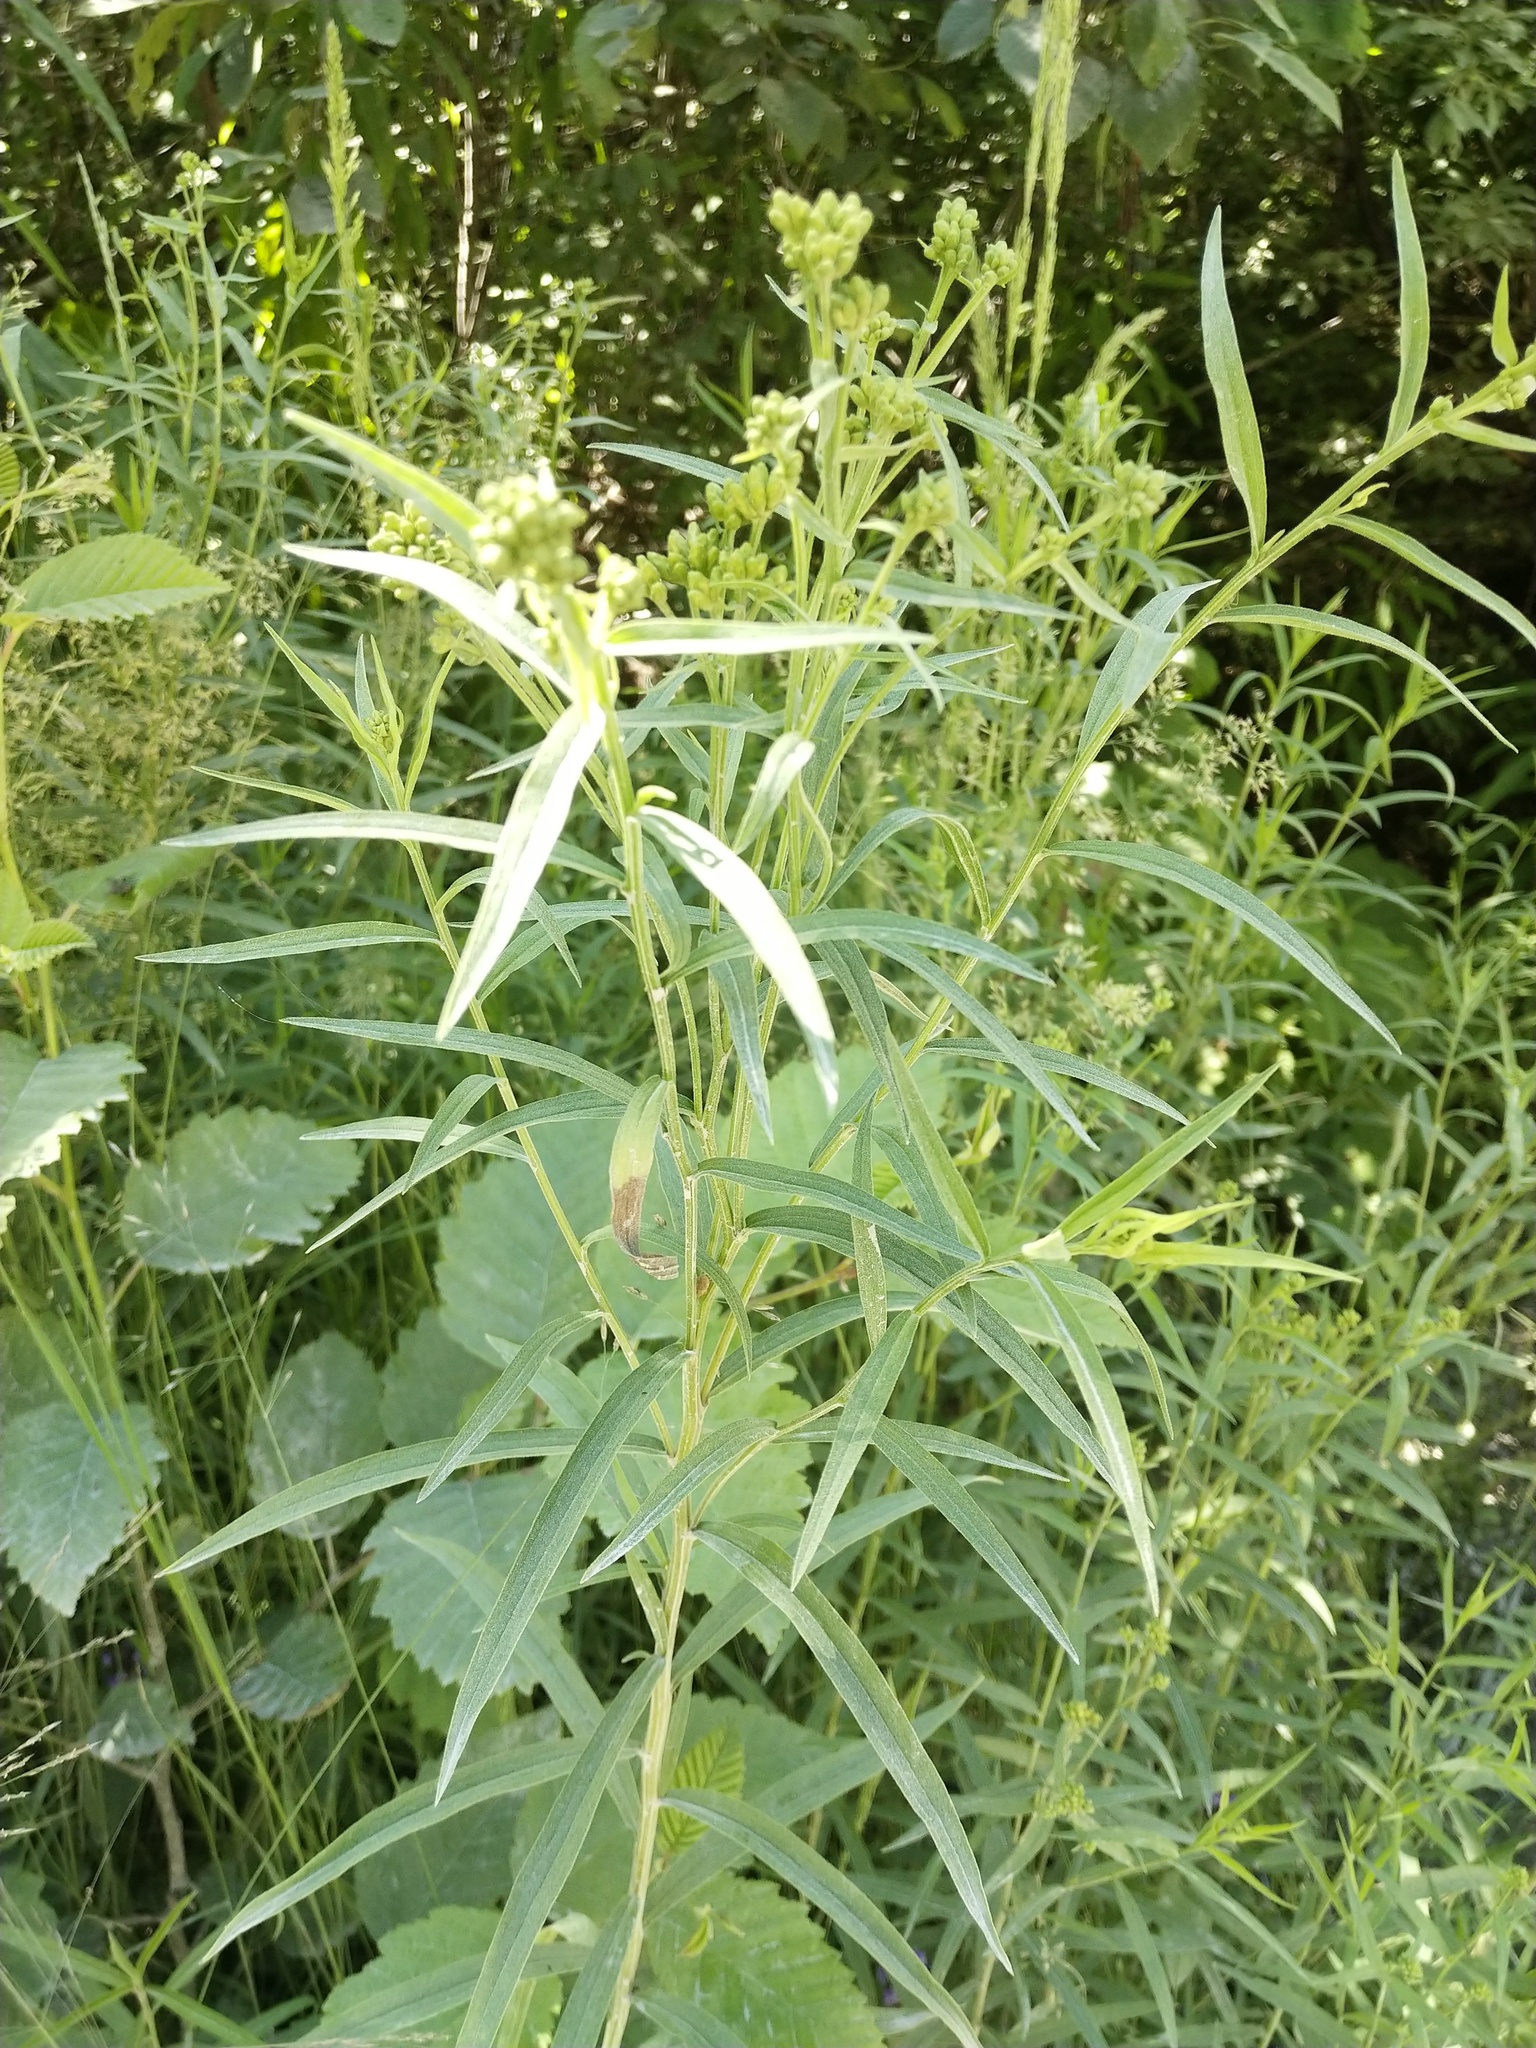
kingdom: Plantae
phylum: Tracheophyta
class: Magnoliopsida
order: Asterales
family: Asteraceae
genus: Euthamia
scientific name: Euthamia graminifolia
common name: Common goldentop
